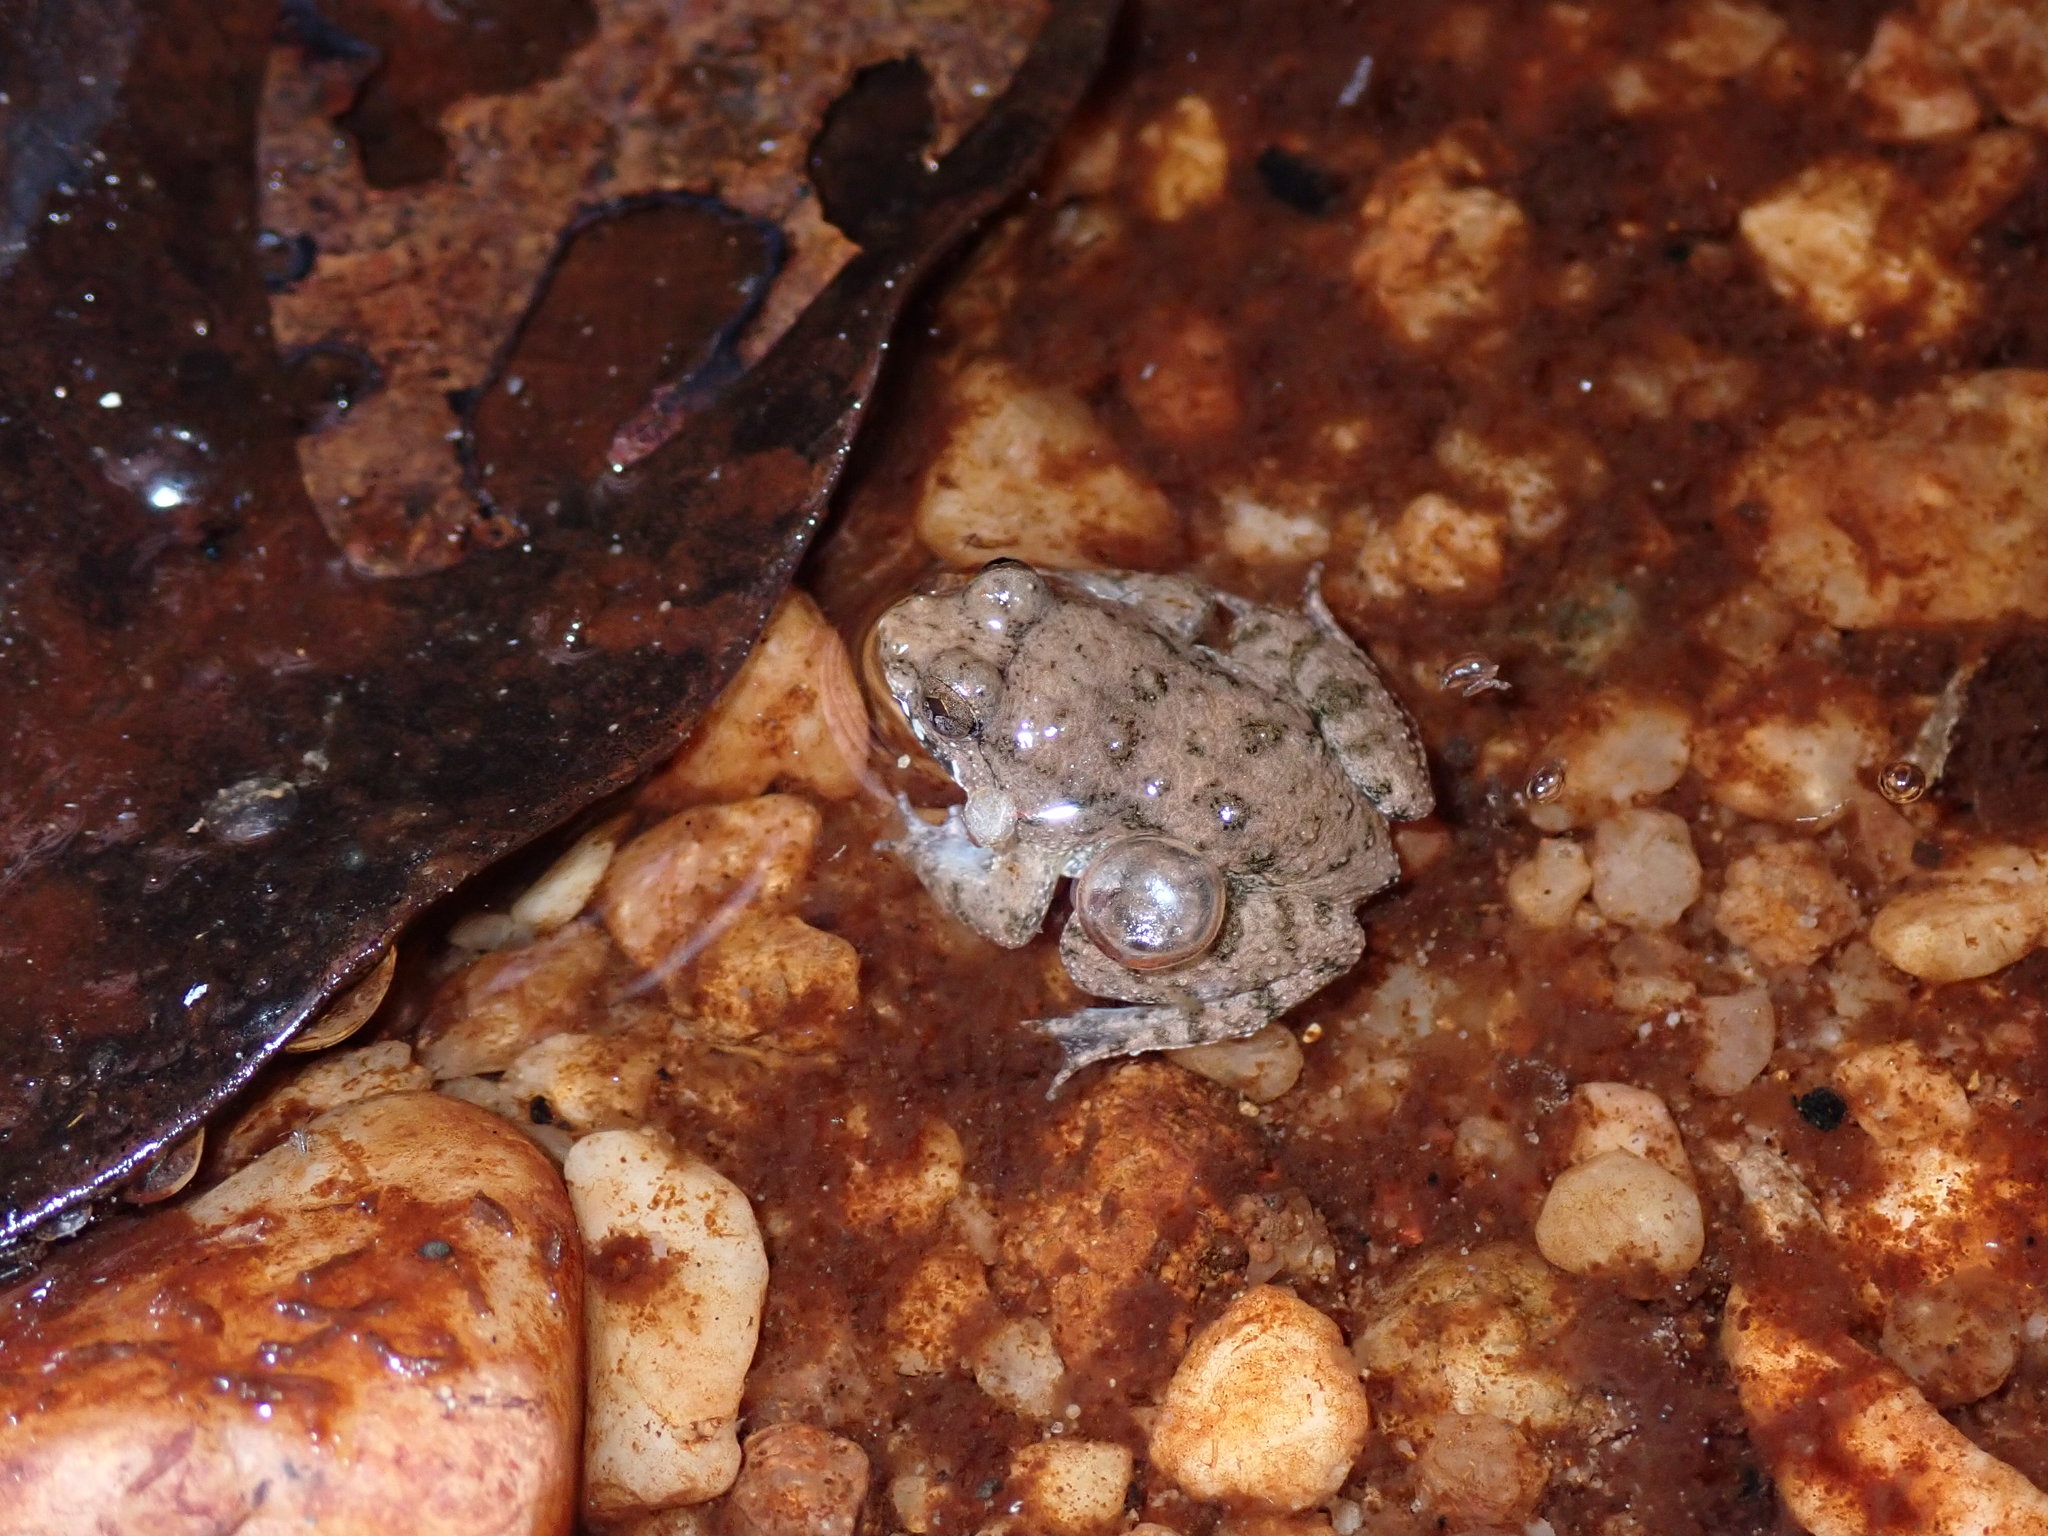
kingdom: Animalia
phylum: Chordata
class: Amphibia
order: Anura
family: Dicroglossidae
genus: Occidozyga
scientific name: Occidozyga magnapustulosa
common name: Thai oriental frog
